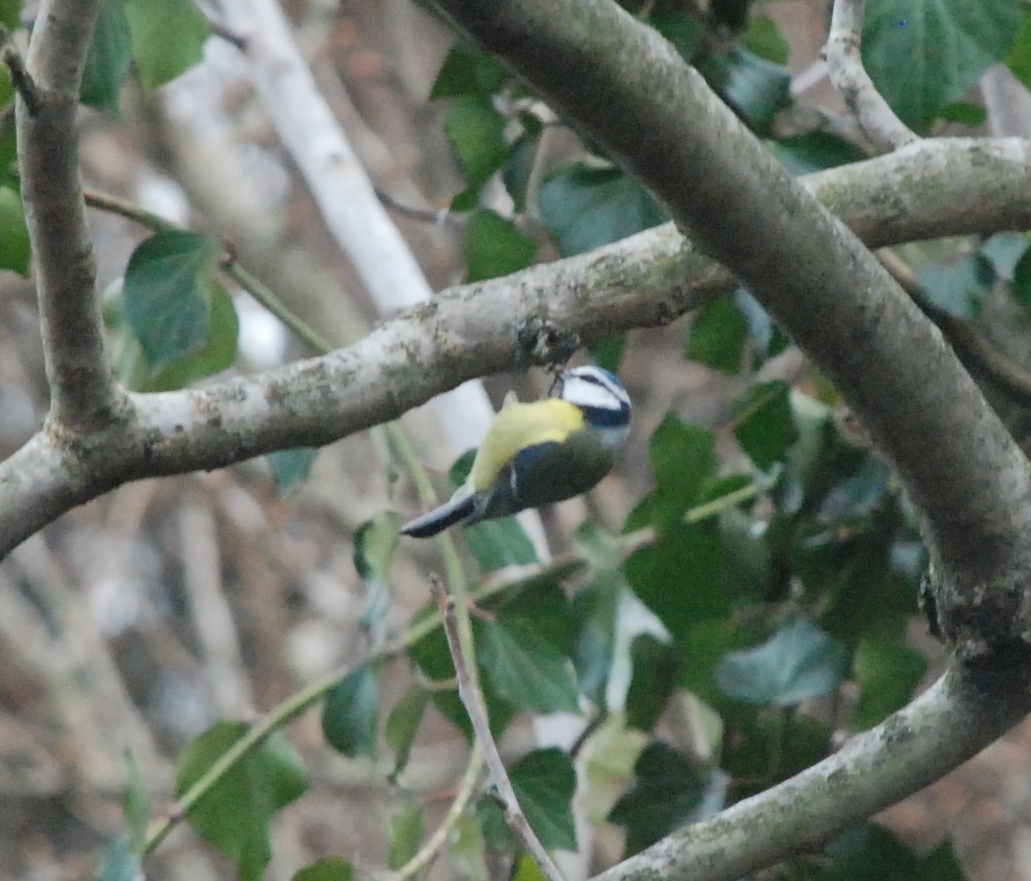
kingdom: Animalia
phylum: Chordata
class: Aves
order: Passeriformes
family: Paridae
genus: Cyanistes
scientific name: Cyanistes caeruleus
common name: Eurasian blue tit
